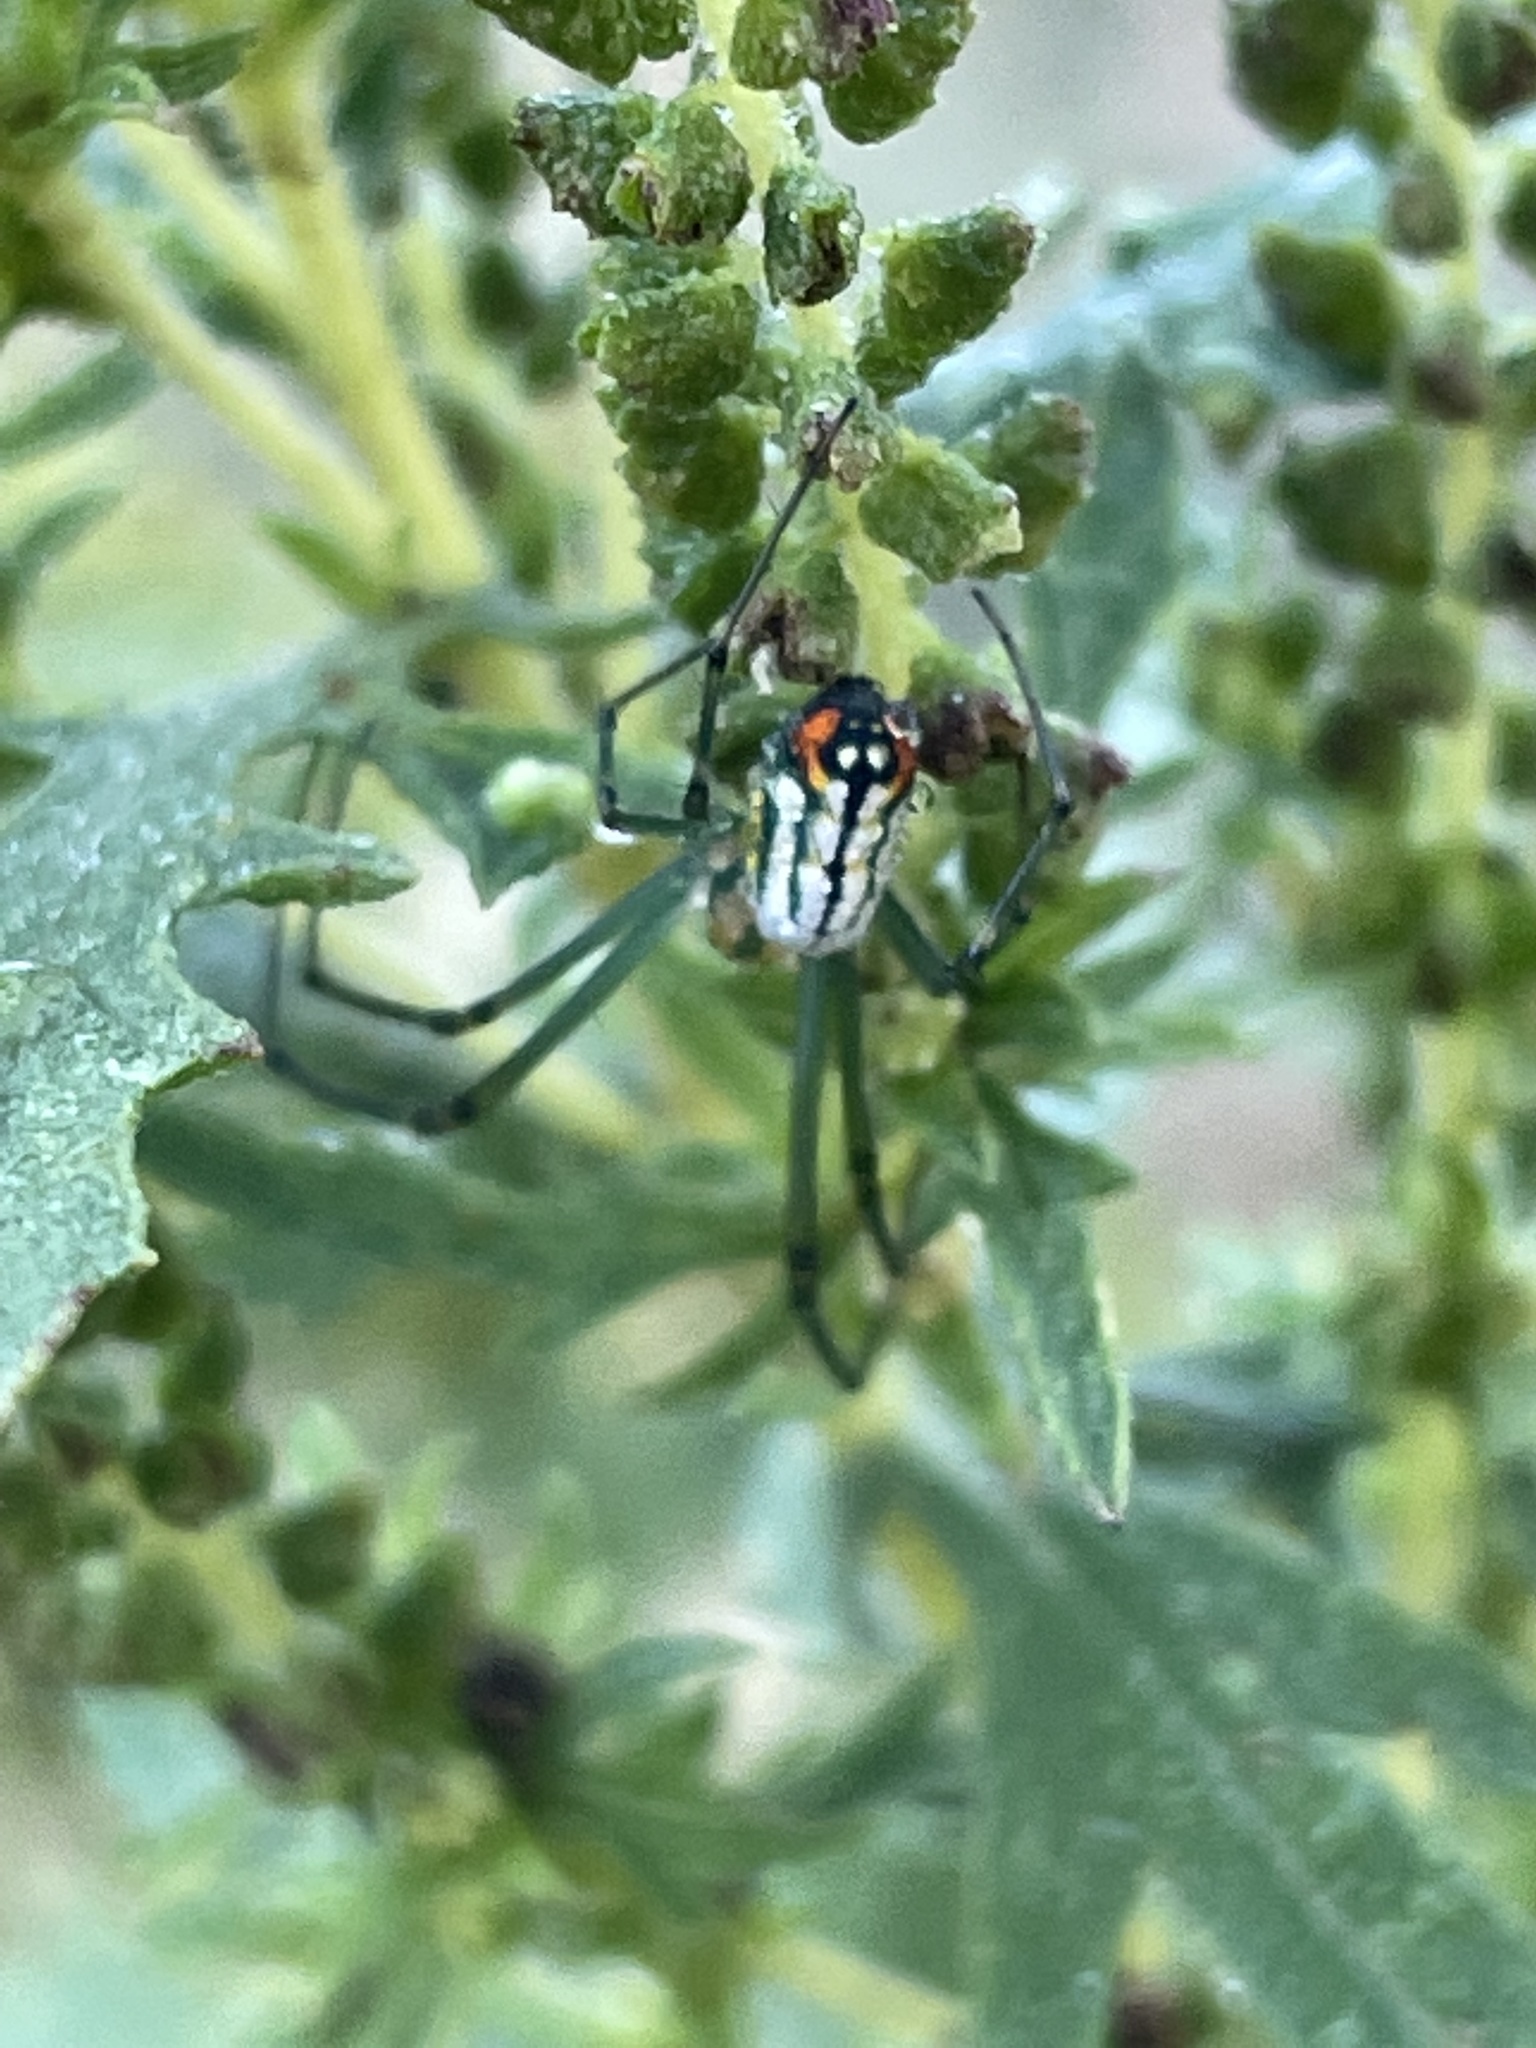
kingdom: Animalia
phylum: Arthropoda
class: Arachnida
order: Araneae
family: Tetragnathidae
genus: Leucauge
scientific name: Leucauge argyrobapta
